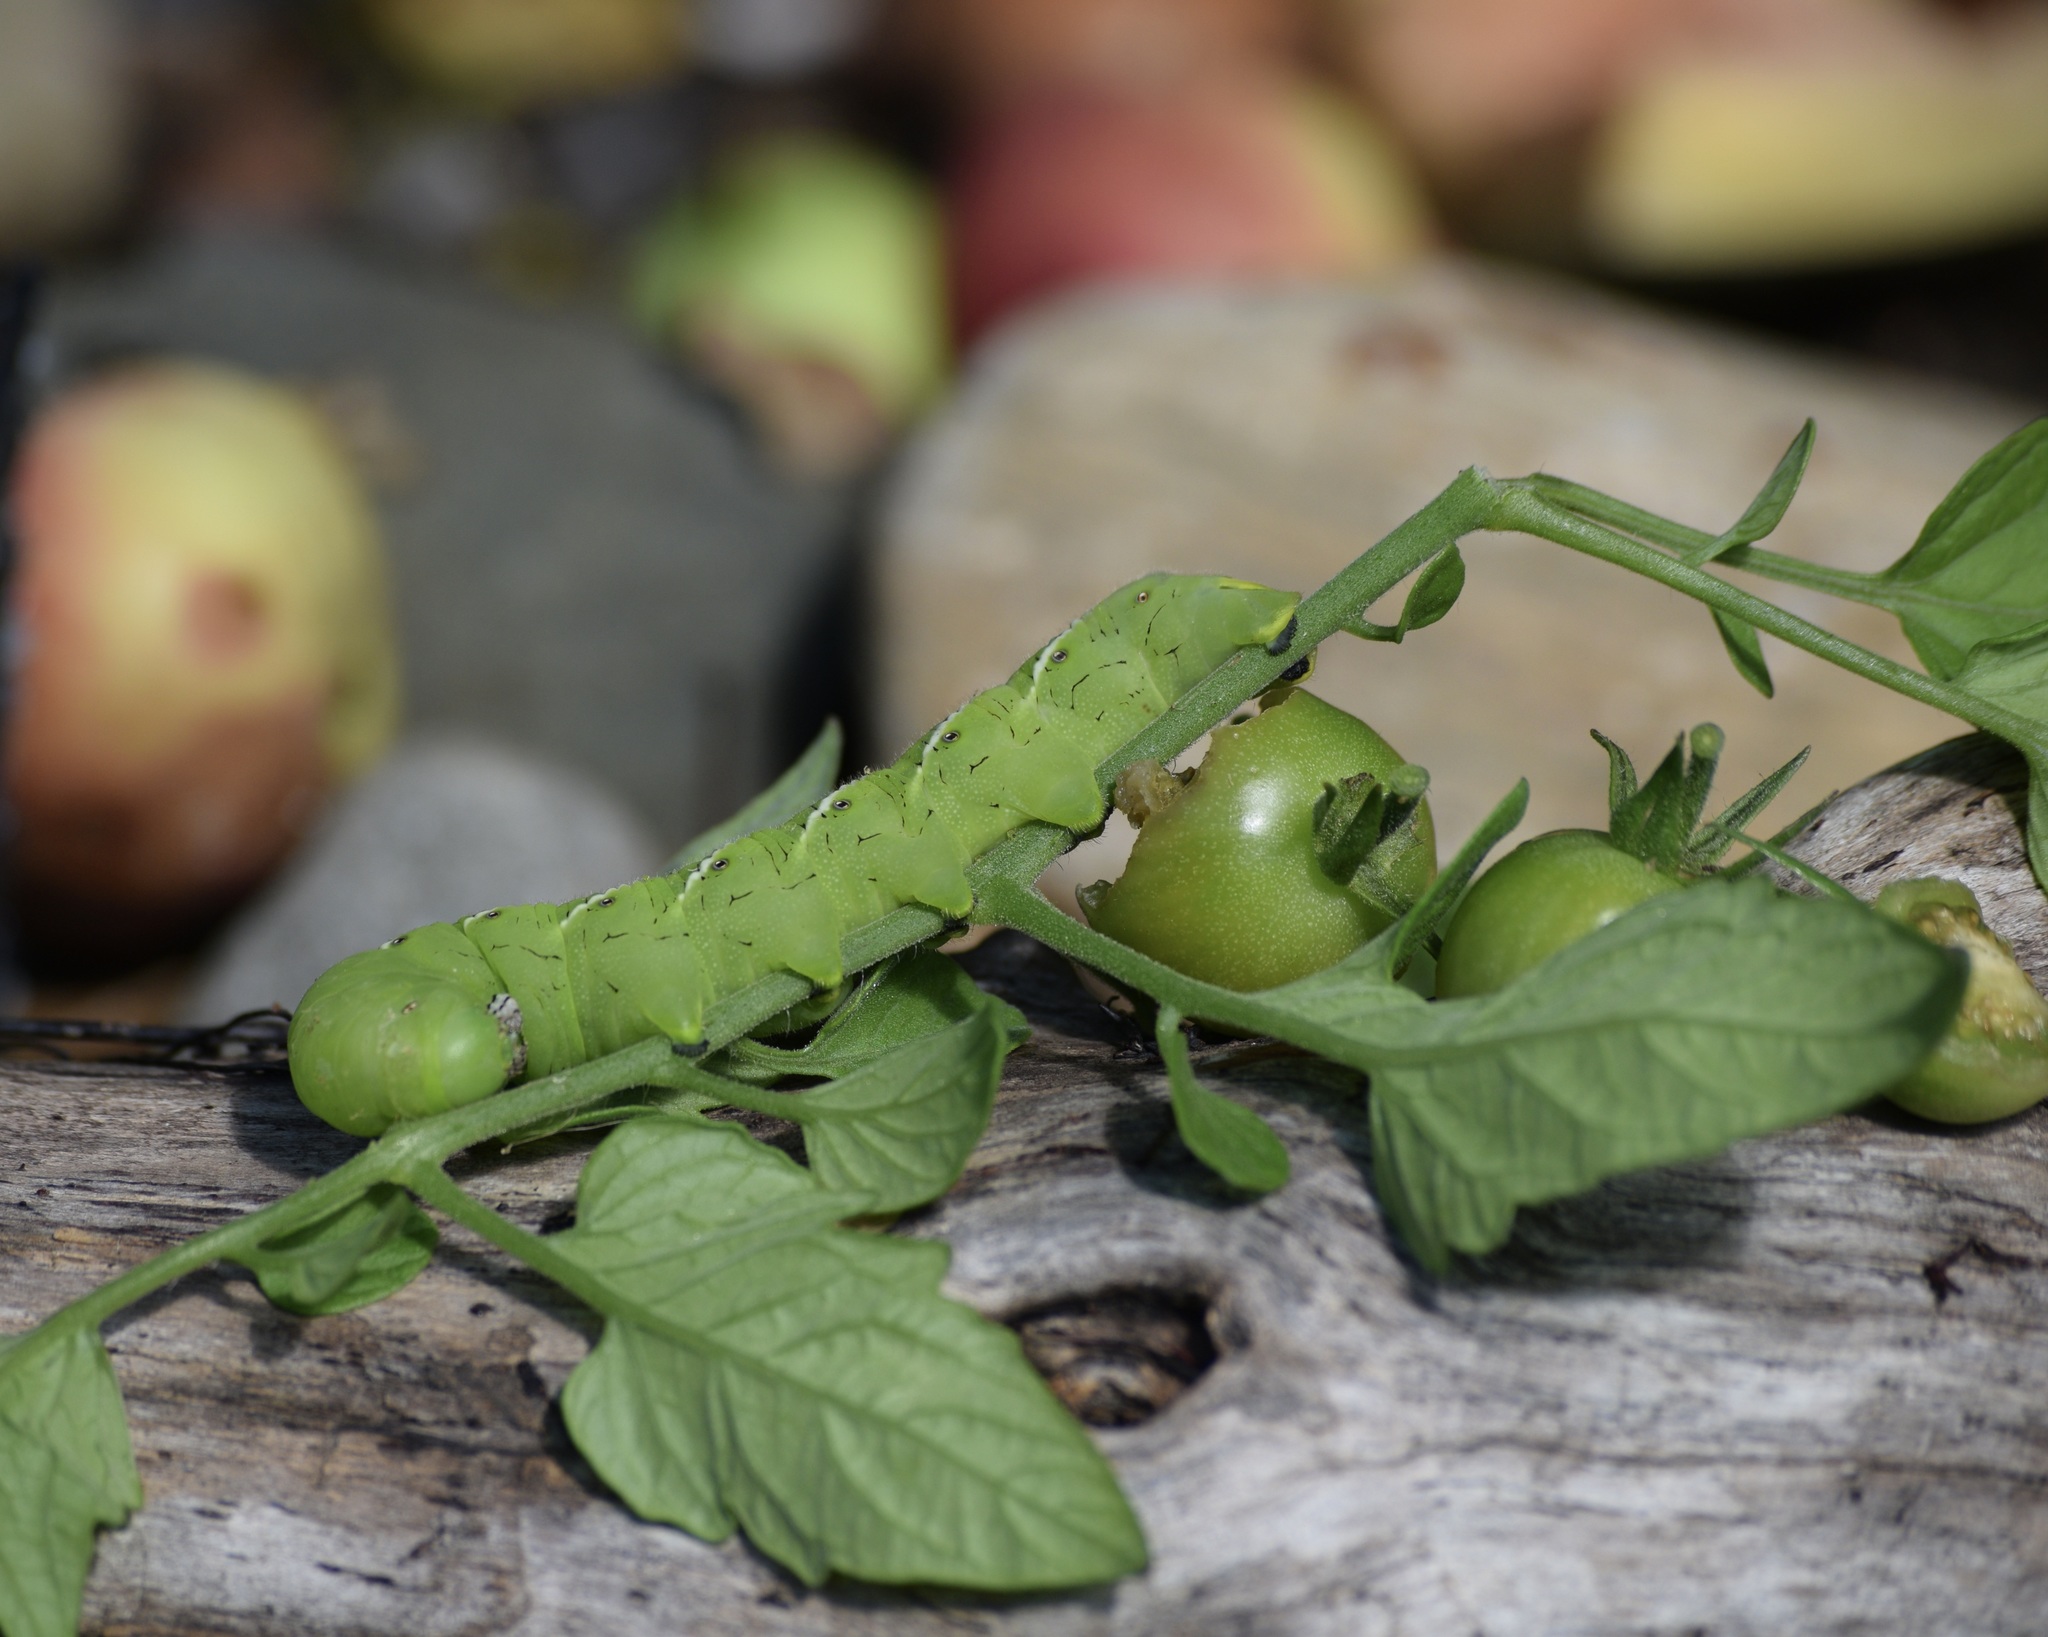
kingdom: Animalia
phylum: Arthropoda
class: Insecta
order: Lepidoptera
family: Sphingidae
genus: Manduca
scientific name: Manduca sexta
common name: Carolina sphinx
